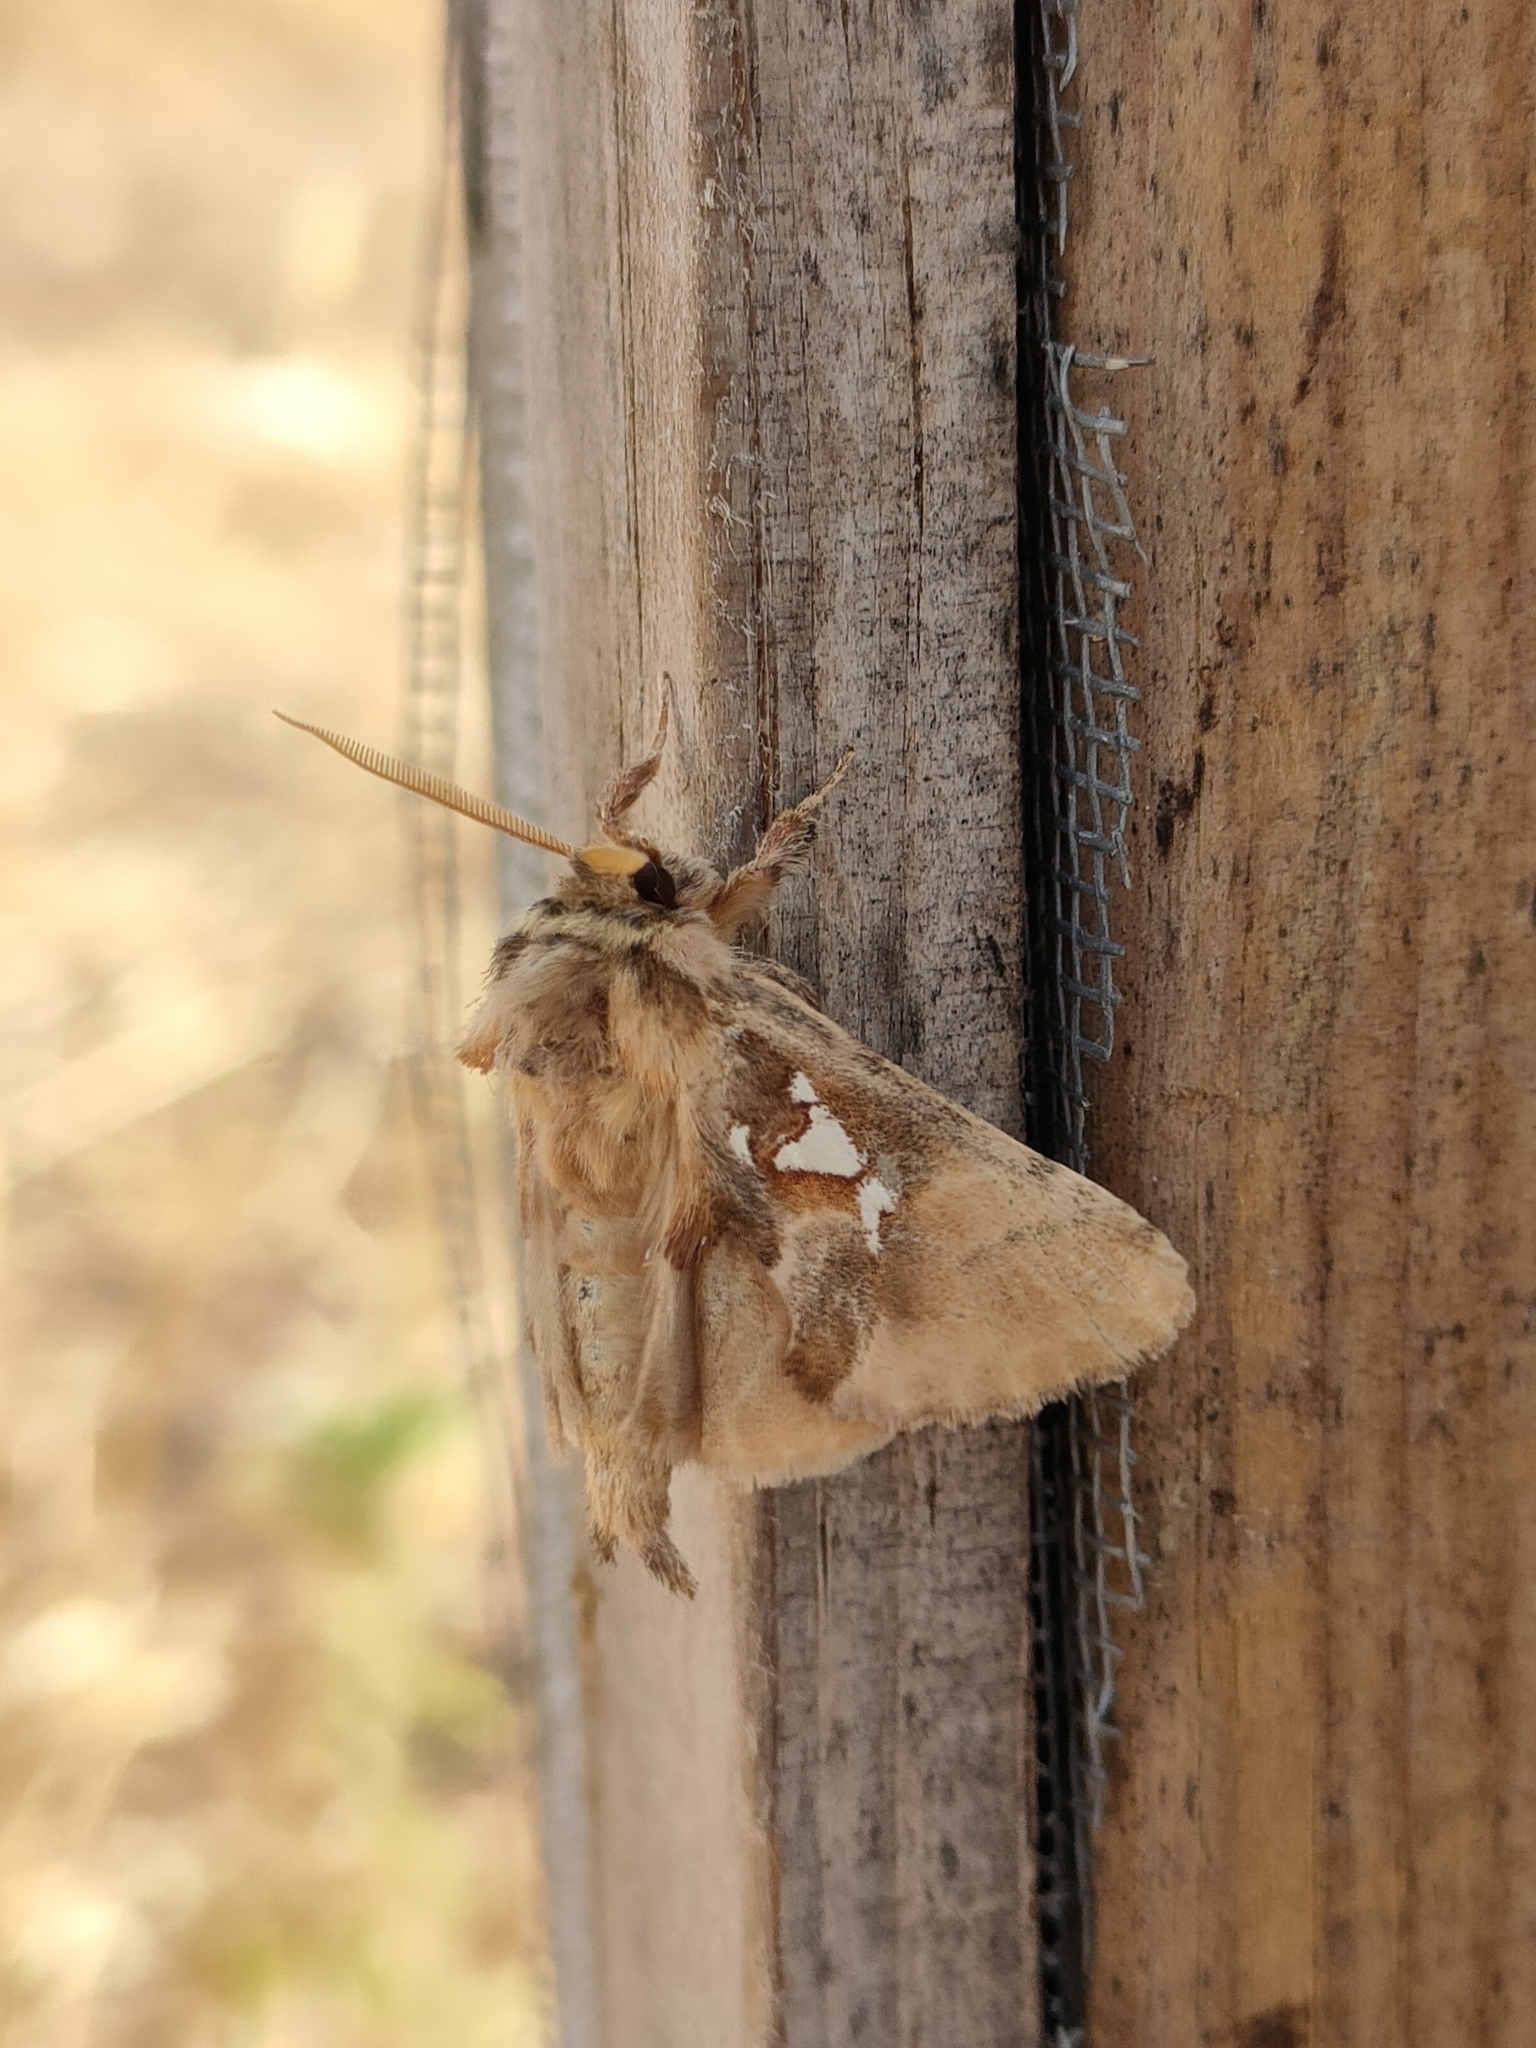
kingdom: Animalia
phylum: Arthropoda
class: Insecta
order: Lepidoptera
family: Notodontidae
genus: Spatalia
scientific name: Spatalia argentina
